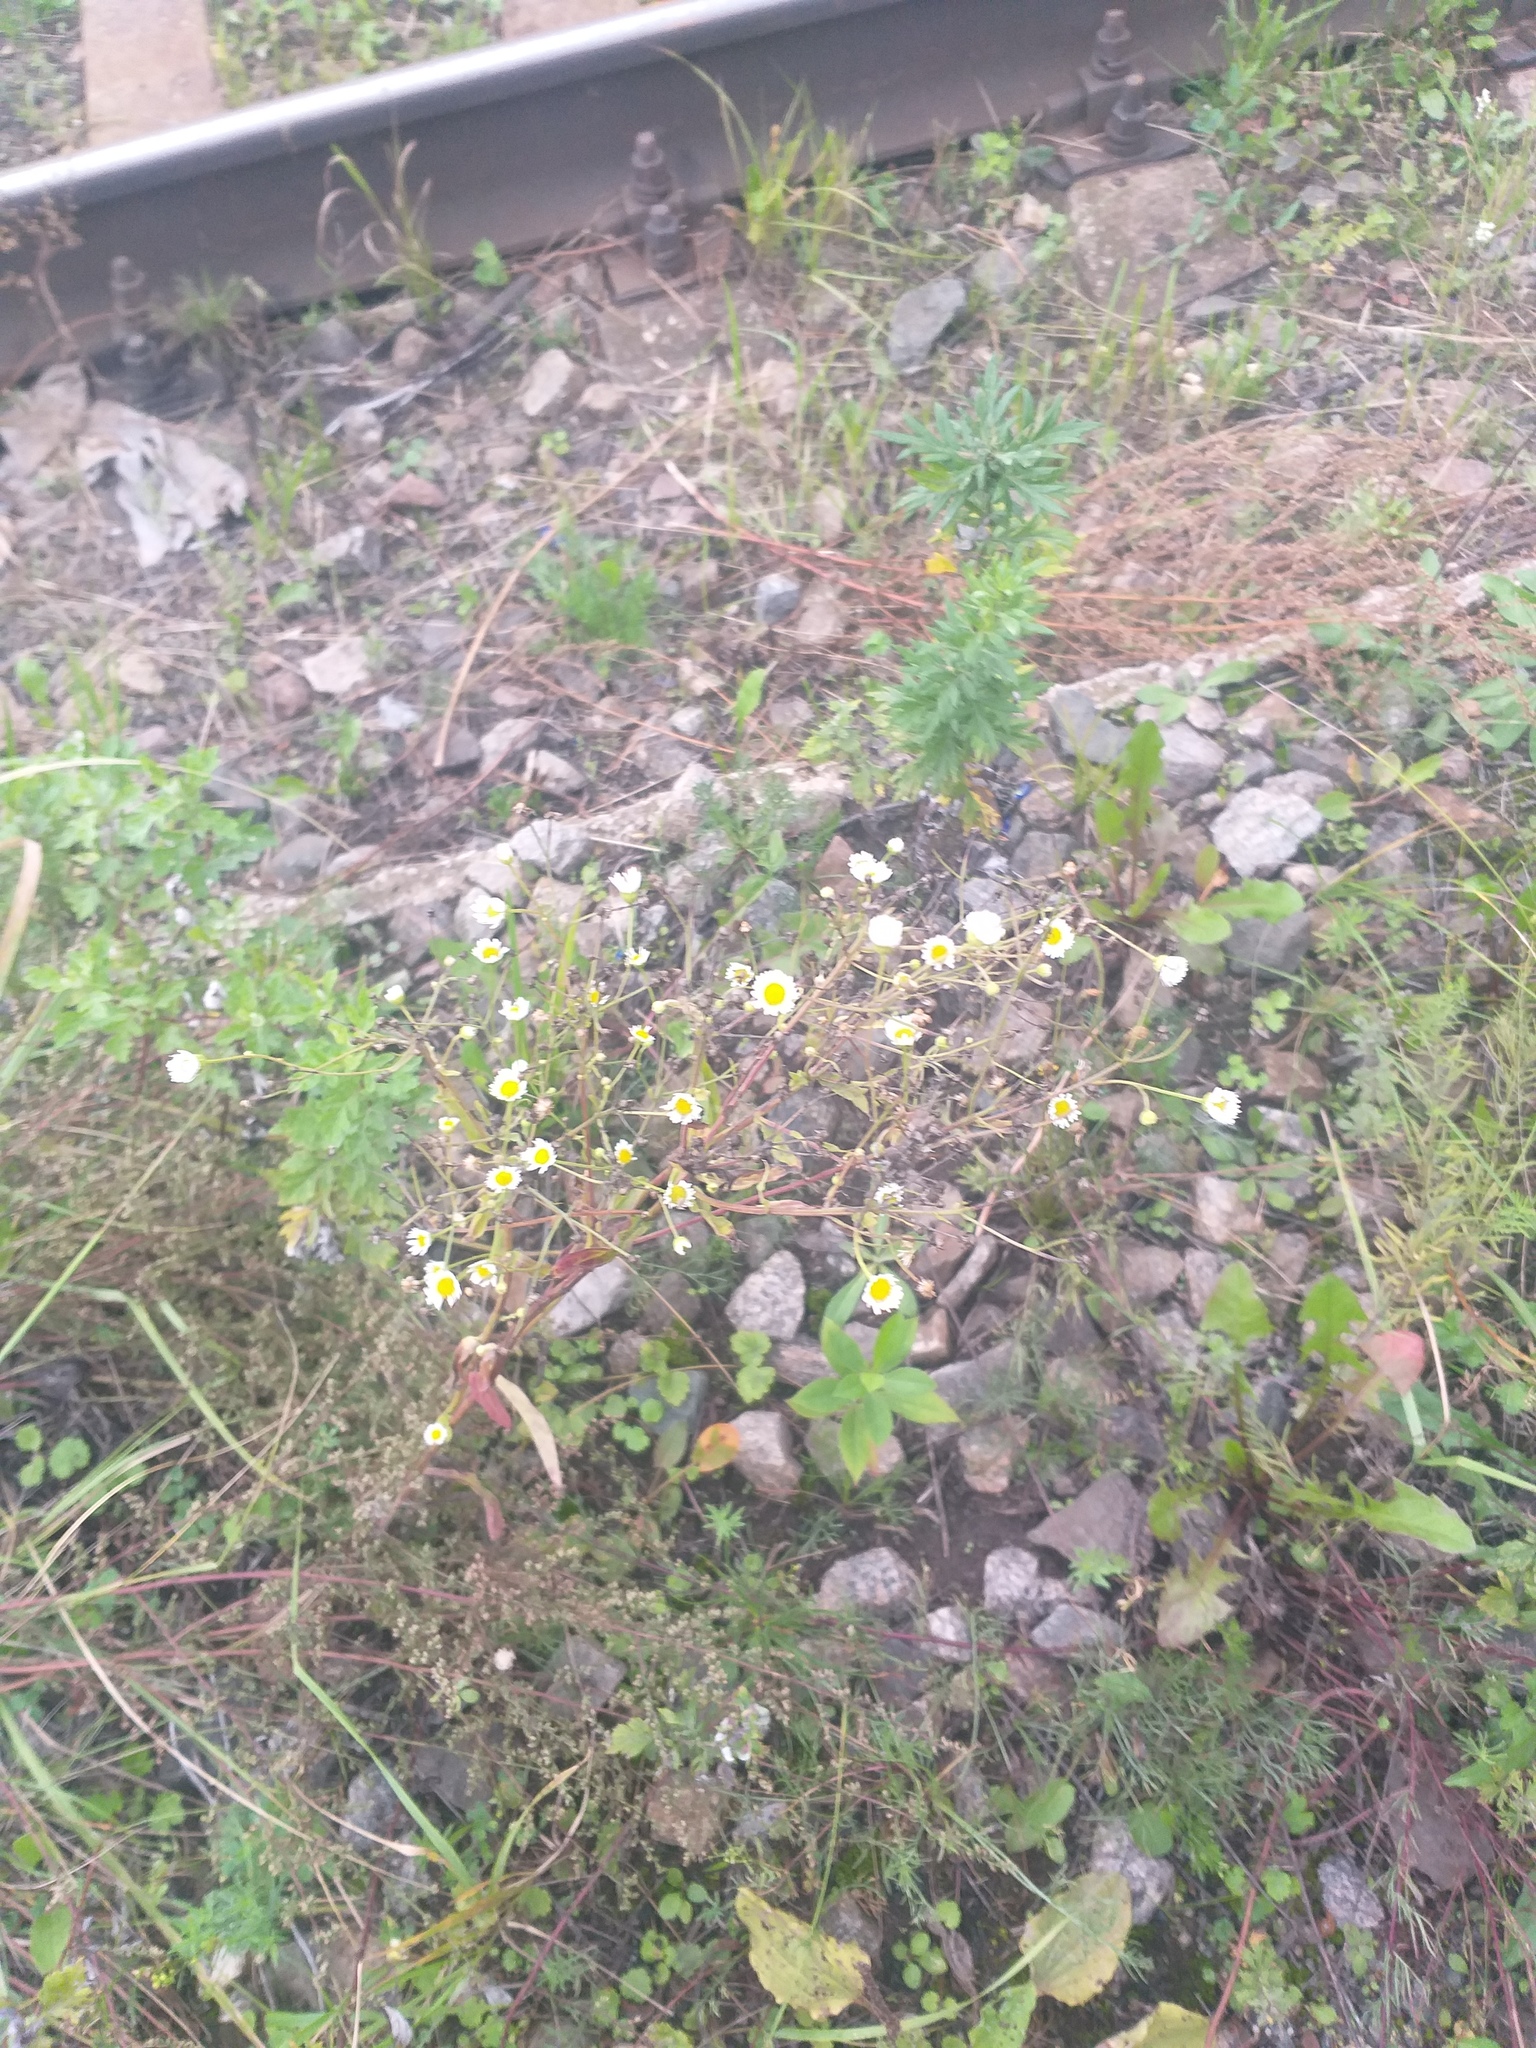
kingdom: Plantae
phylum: Tracheophyta
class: Magnoliopsida
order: Asterales
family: Asteraceae
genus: Erigeron
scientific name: Erigeron annuus
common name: Tall fleabane
